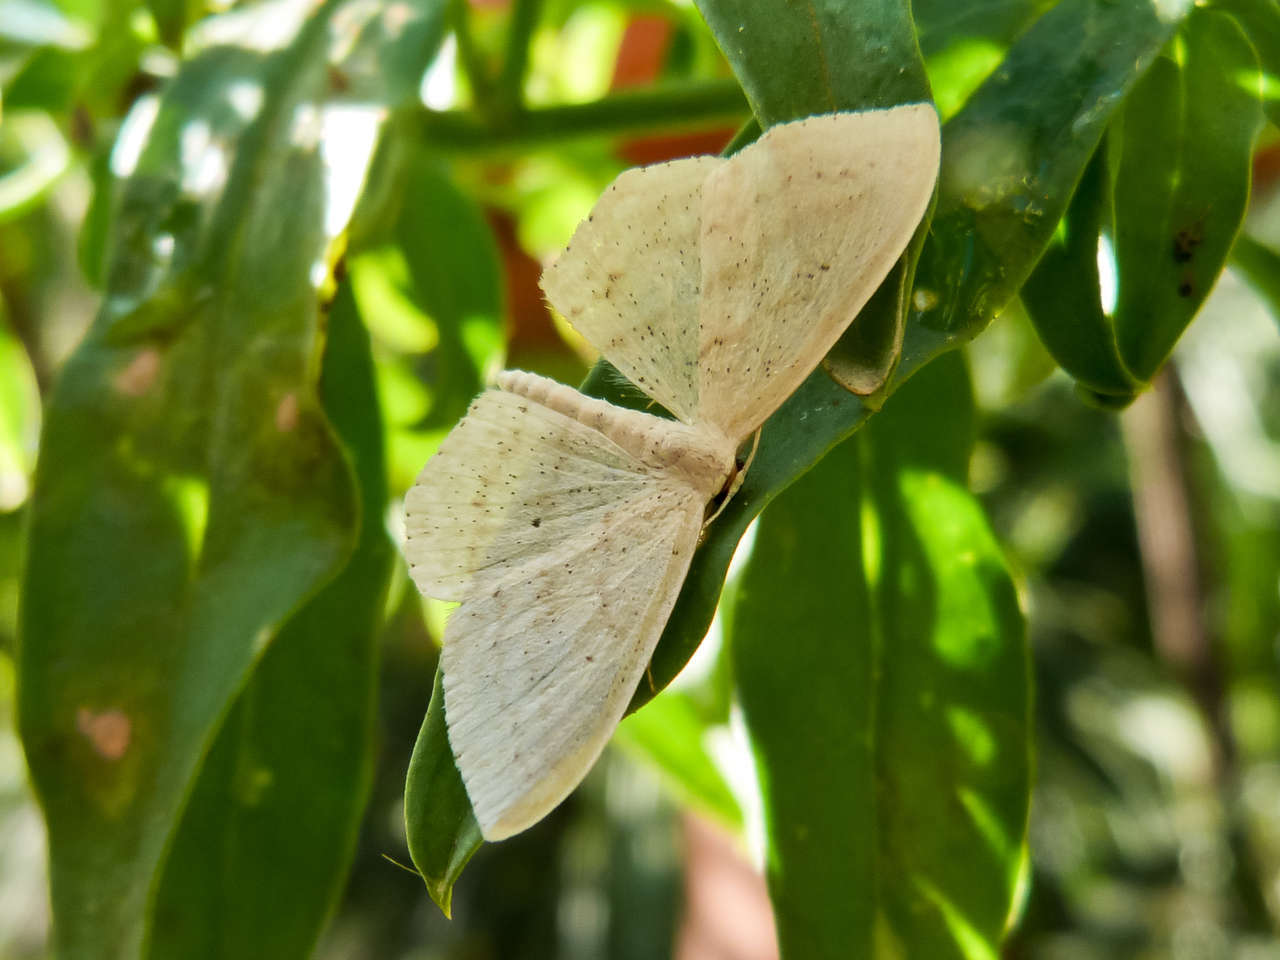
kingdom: Animalia
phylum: Arthropoda
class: Insecta
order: Lepidoptera
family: Geometridae
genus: Scopula
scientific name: Scopula perlata
